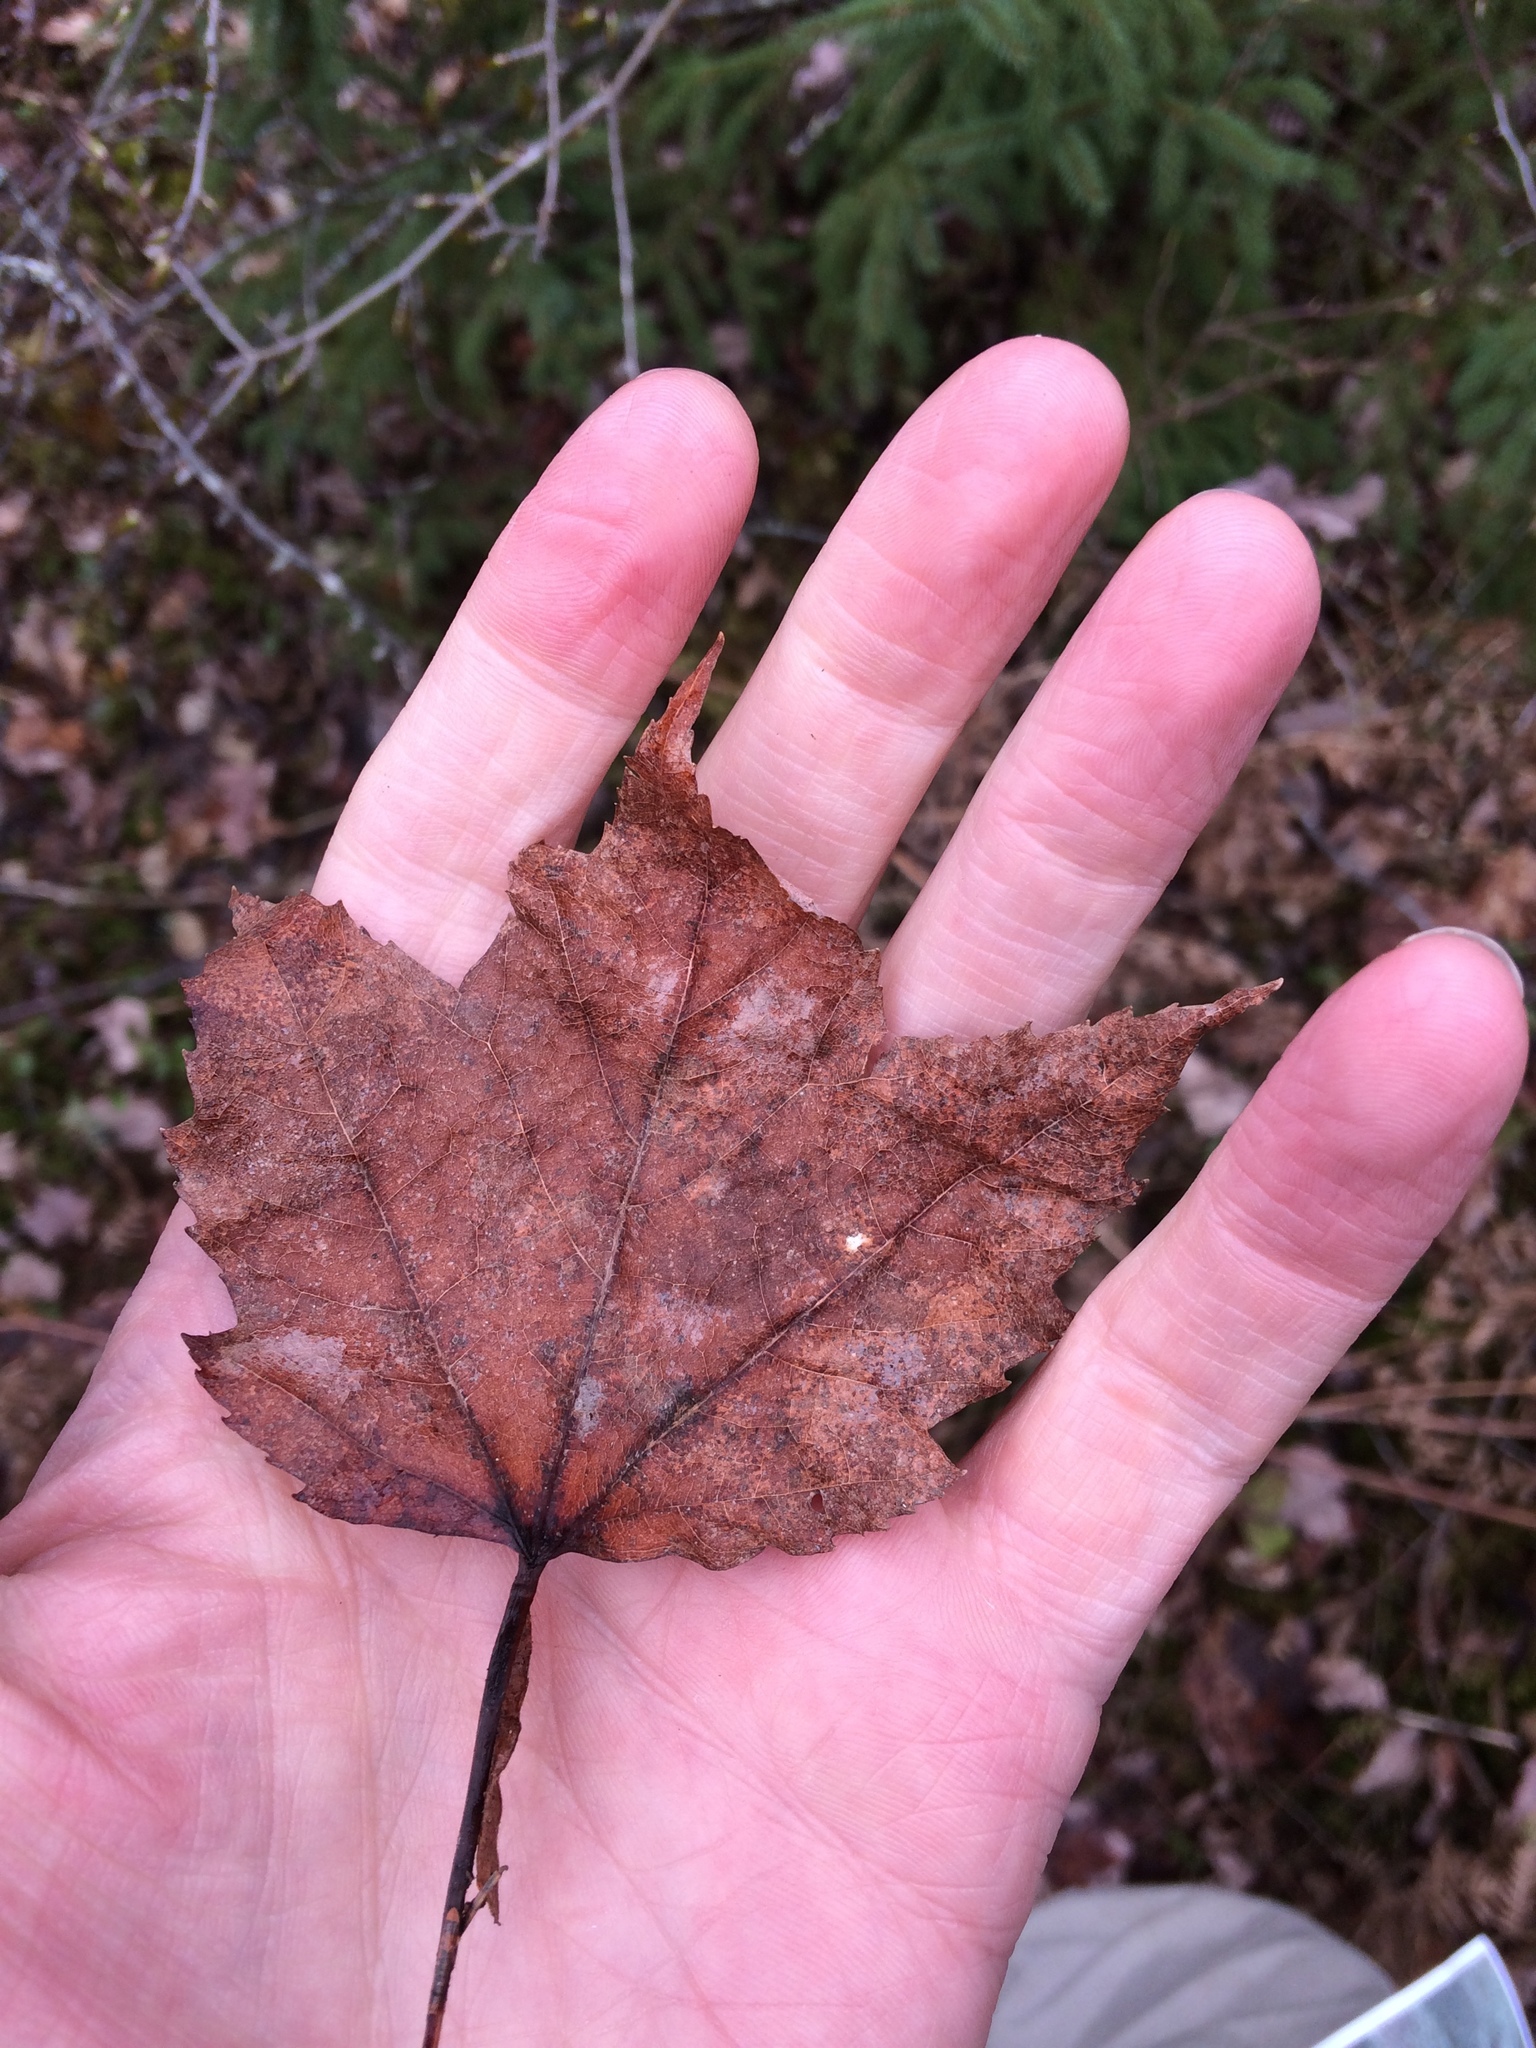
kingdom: Plantae
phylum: Tracheophyta
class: Magnoliopsida
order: Sapindales
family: Sapindaceae
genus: Acer
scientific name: Acer rubrum
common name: Red maple
